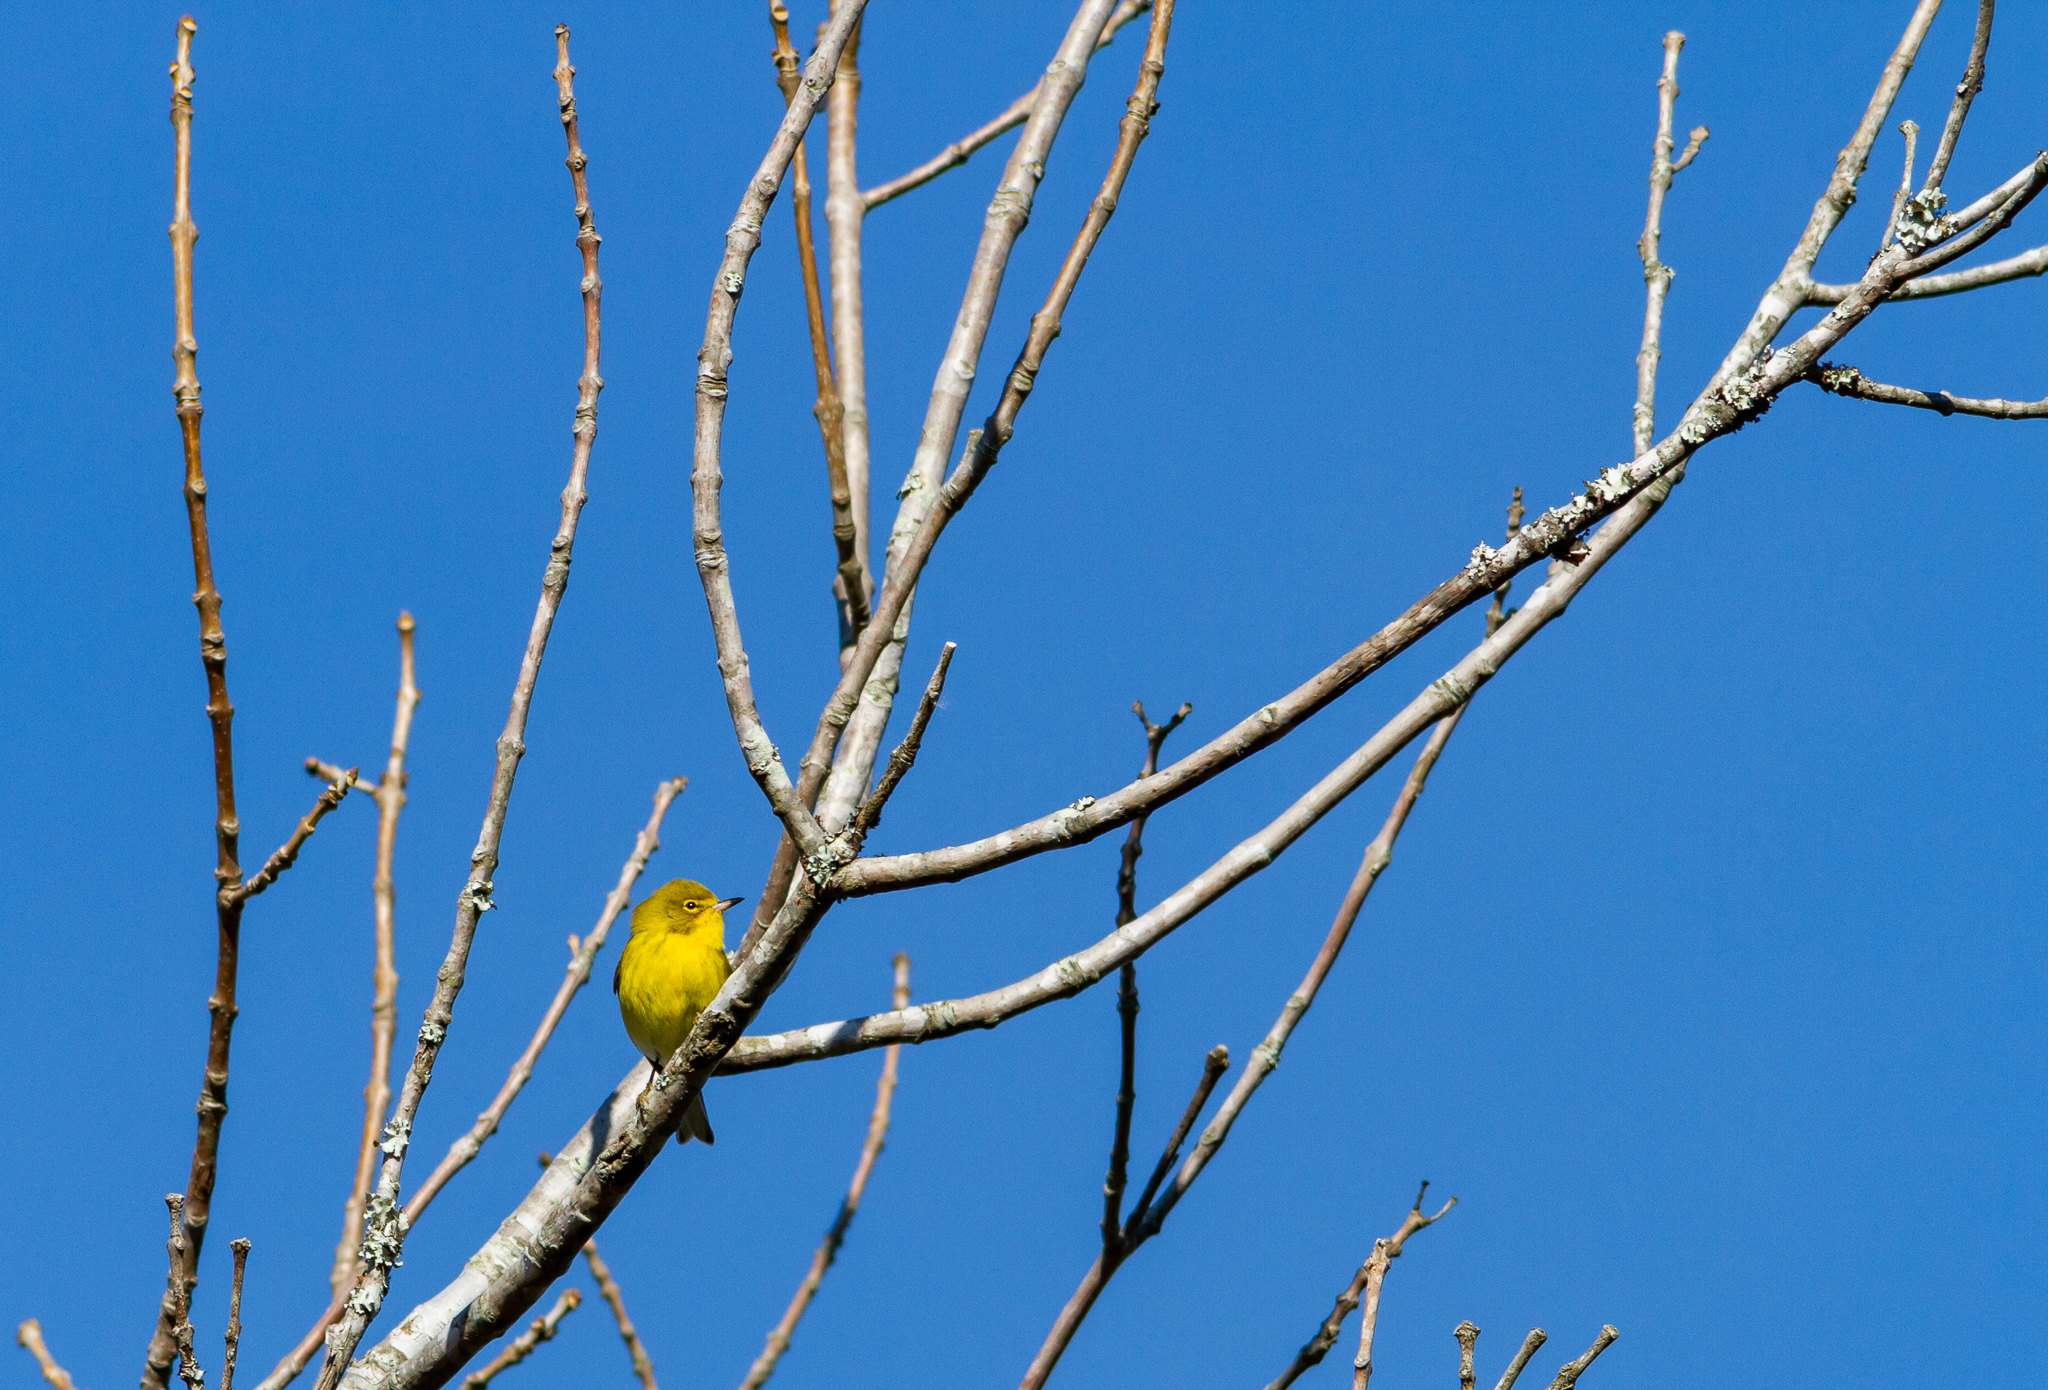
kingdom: Animalia
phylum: Chordata
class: Aves
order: Passeriformes
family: Parulidae
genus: Setophaga
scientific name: Setophaga pinus
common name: Pine warbler
